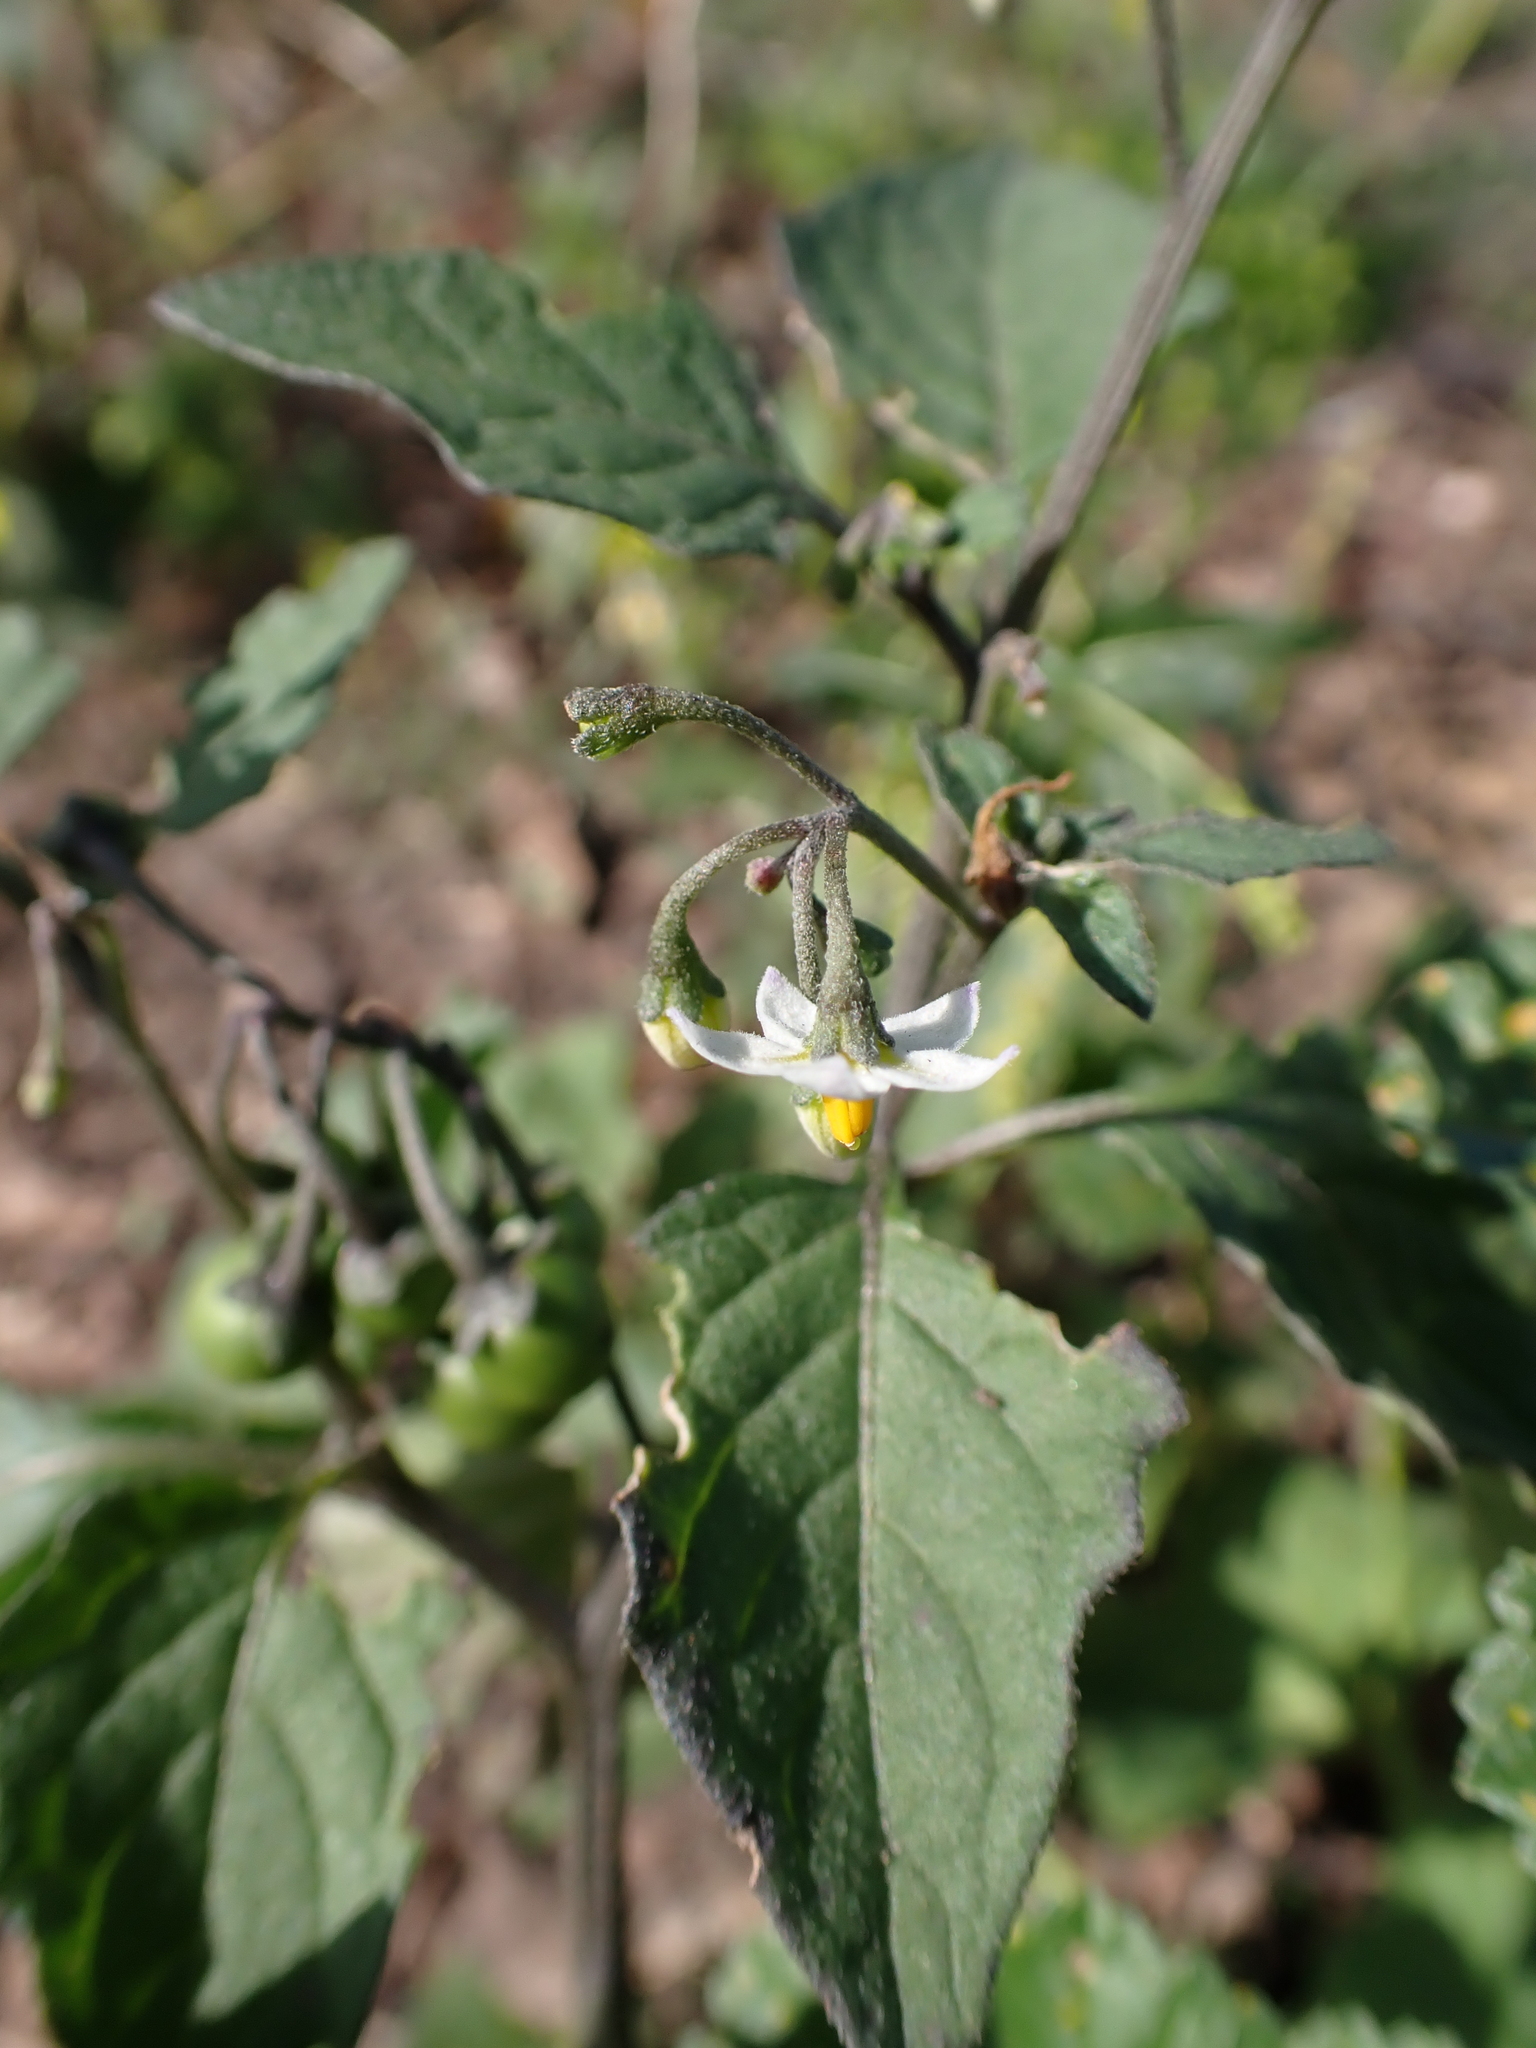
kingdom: Plantae
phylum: Tracheophyta
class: Magnoliopsida
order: Solanales
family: Solanaceae
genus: Solanum
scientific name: Solanum nigrum
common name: Black nightshade
